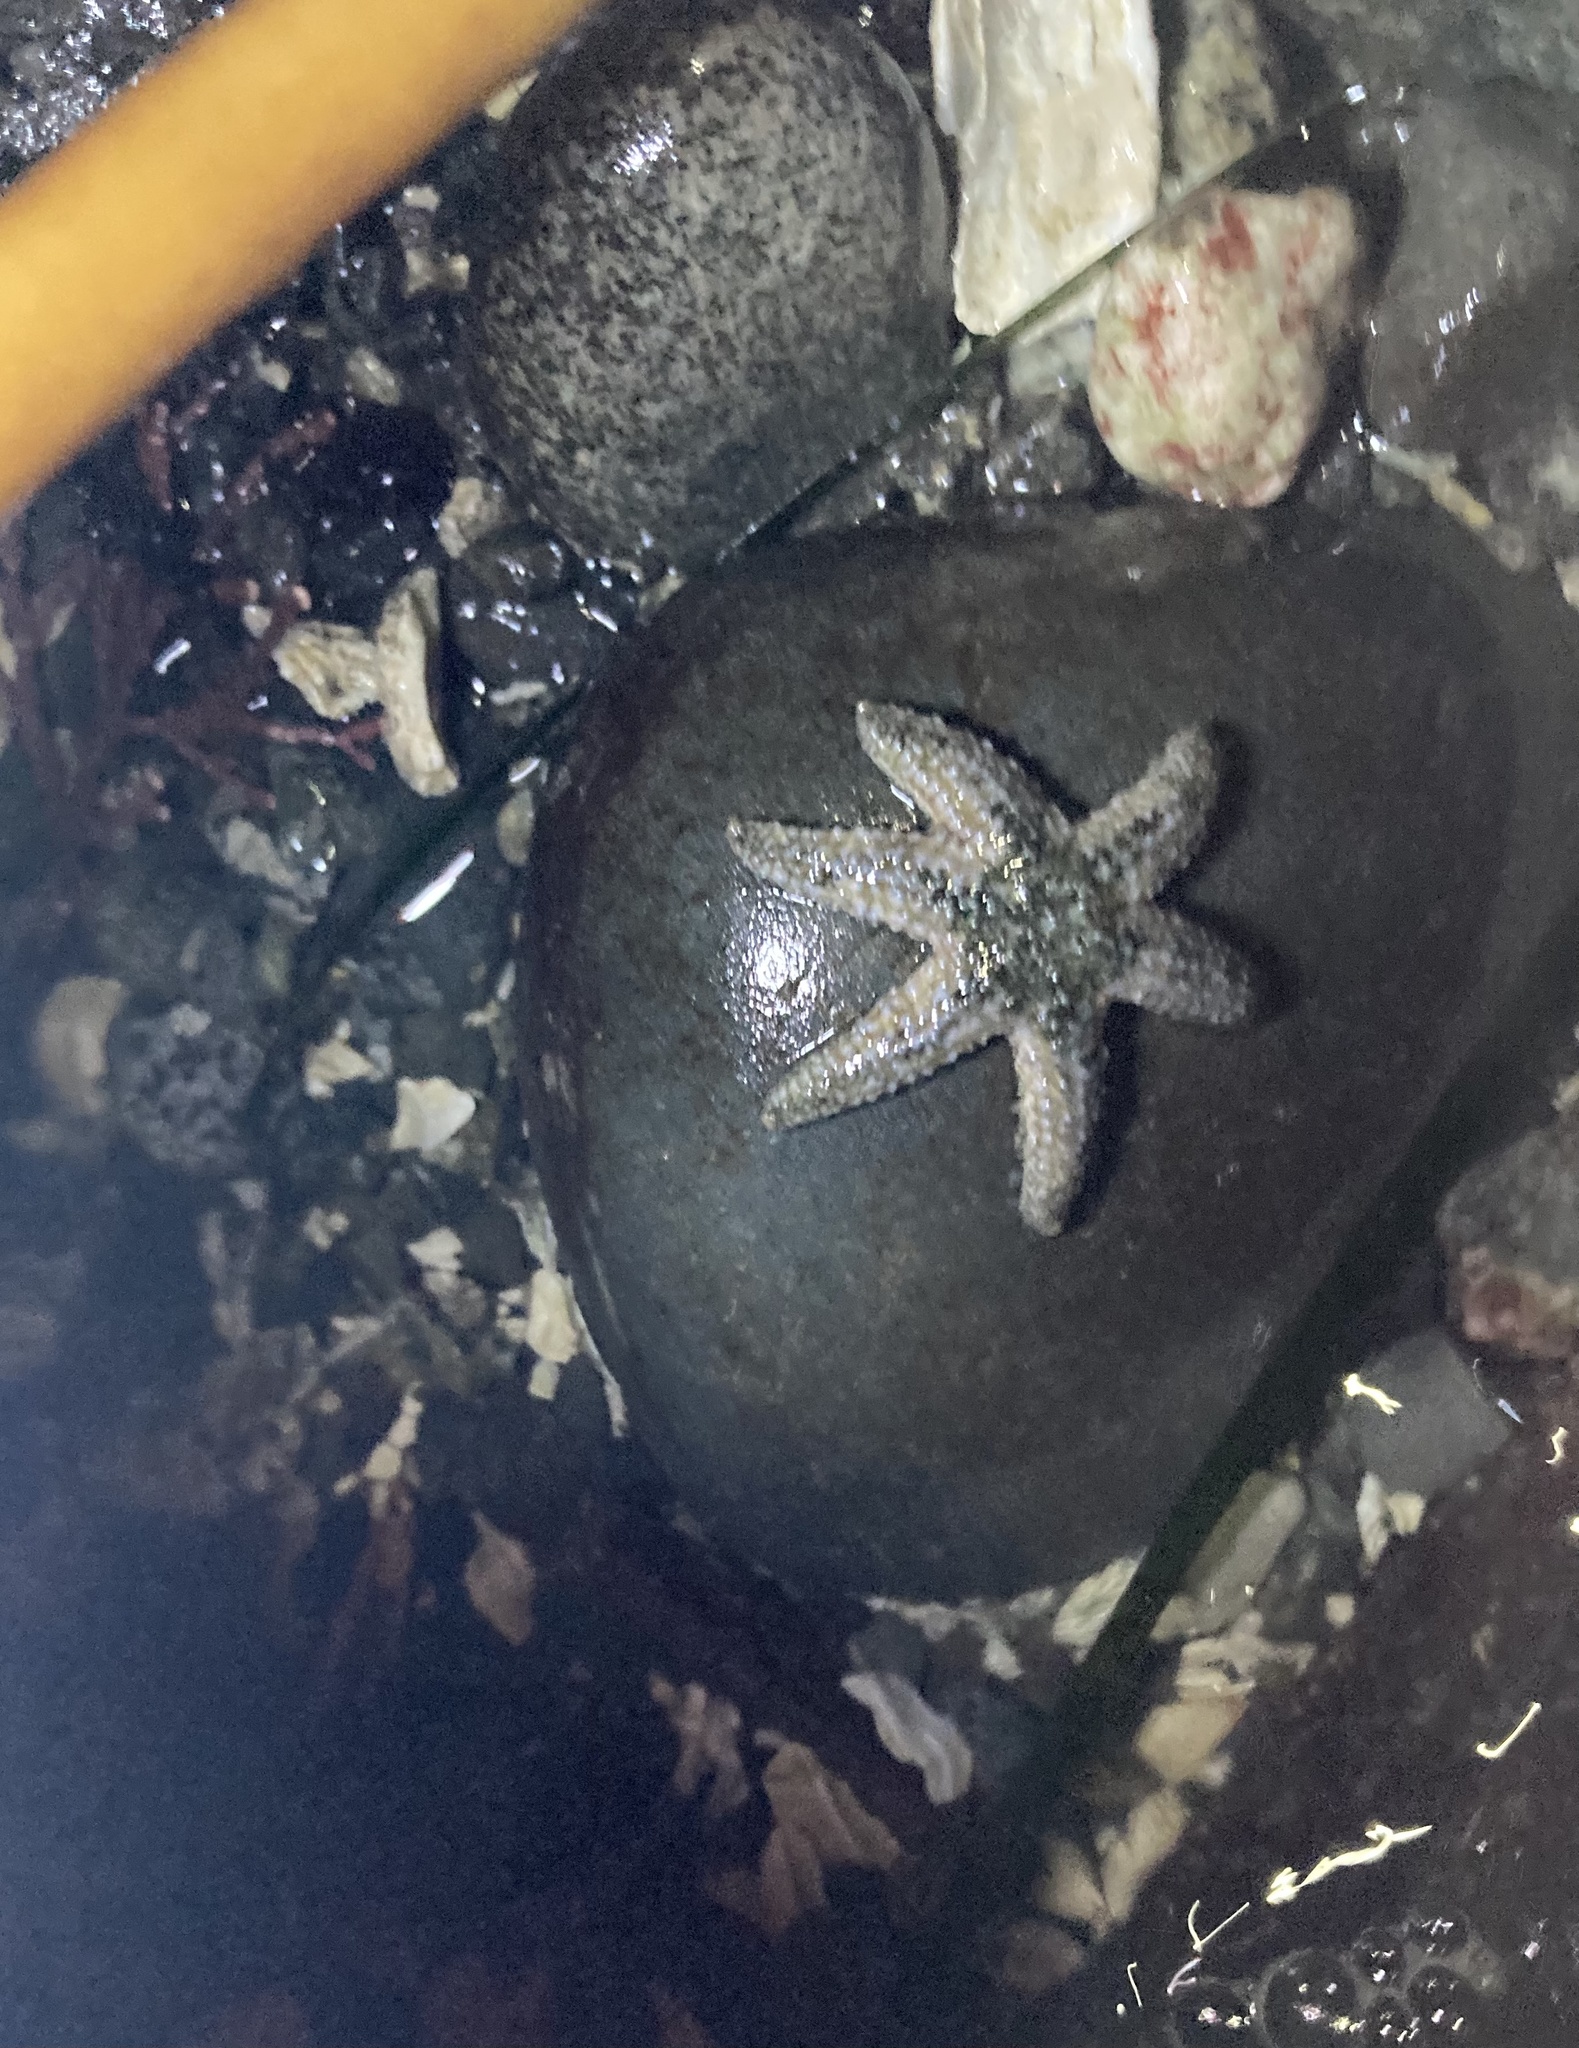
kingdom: Animalia
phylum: Echinodermata
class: Asteroidea
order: Forcipulatida
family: Asteriidae
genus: Leptasterias
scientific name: Leptasterias hexactis
